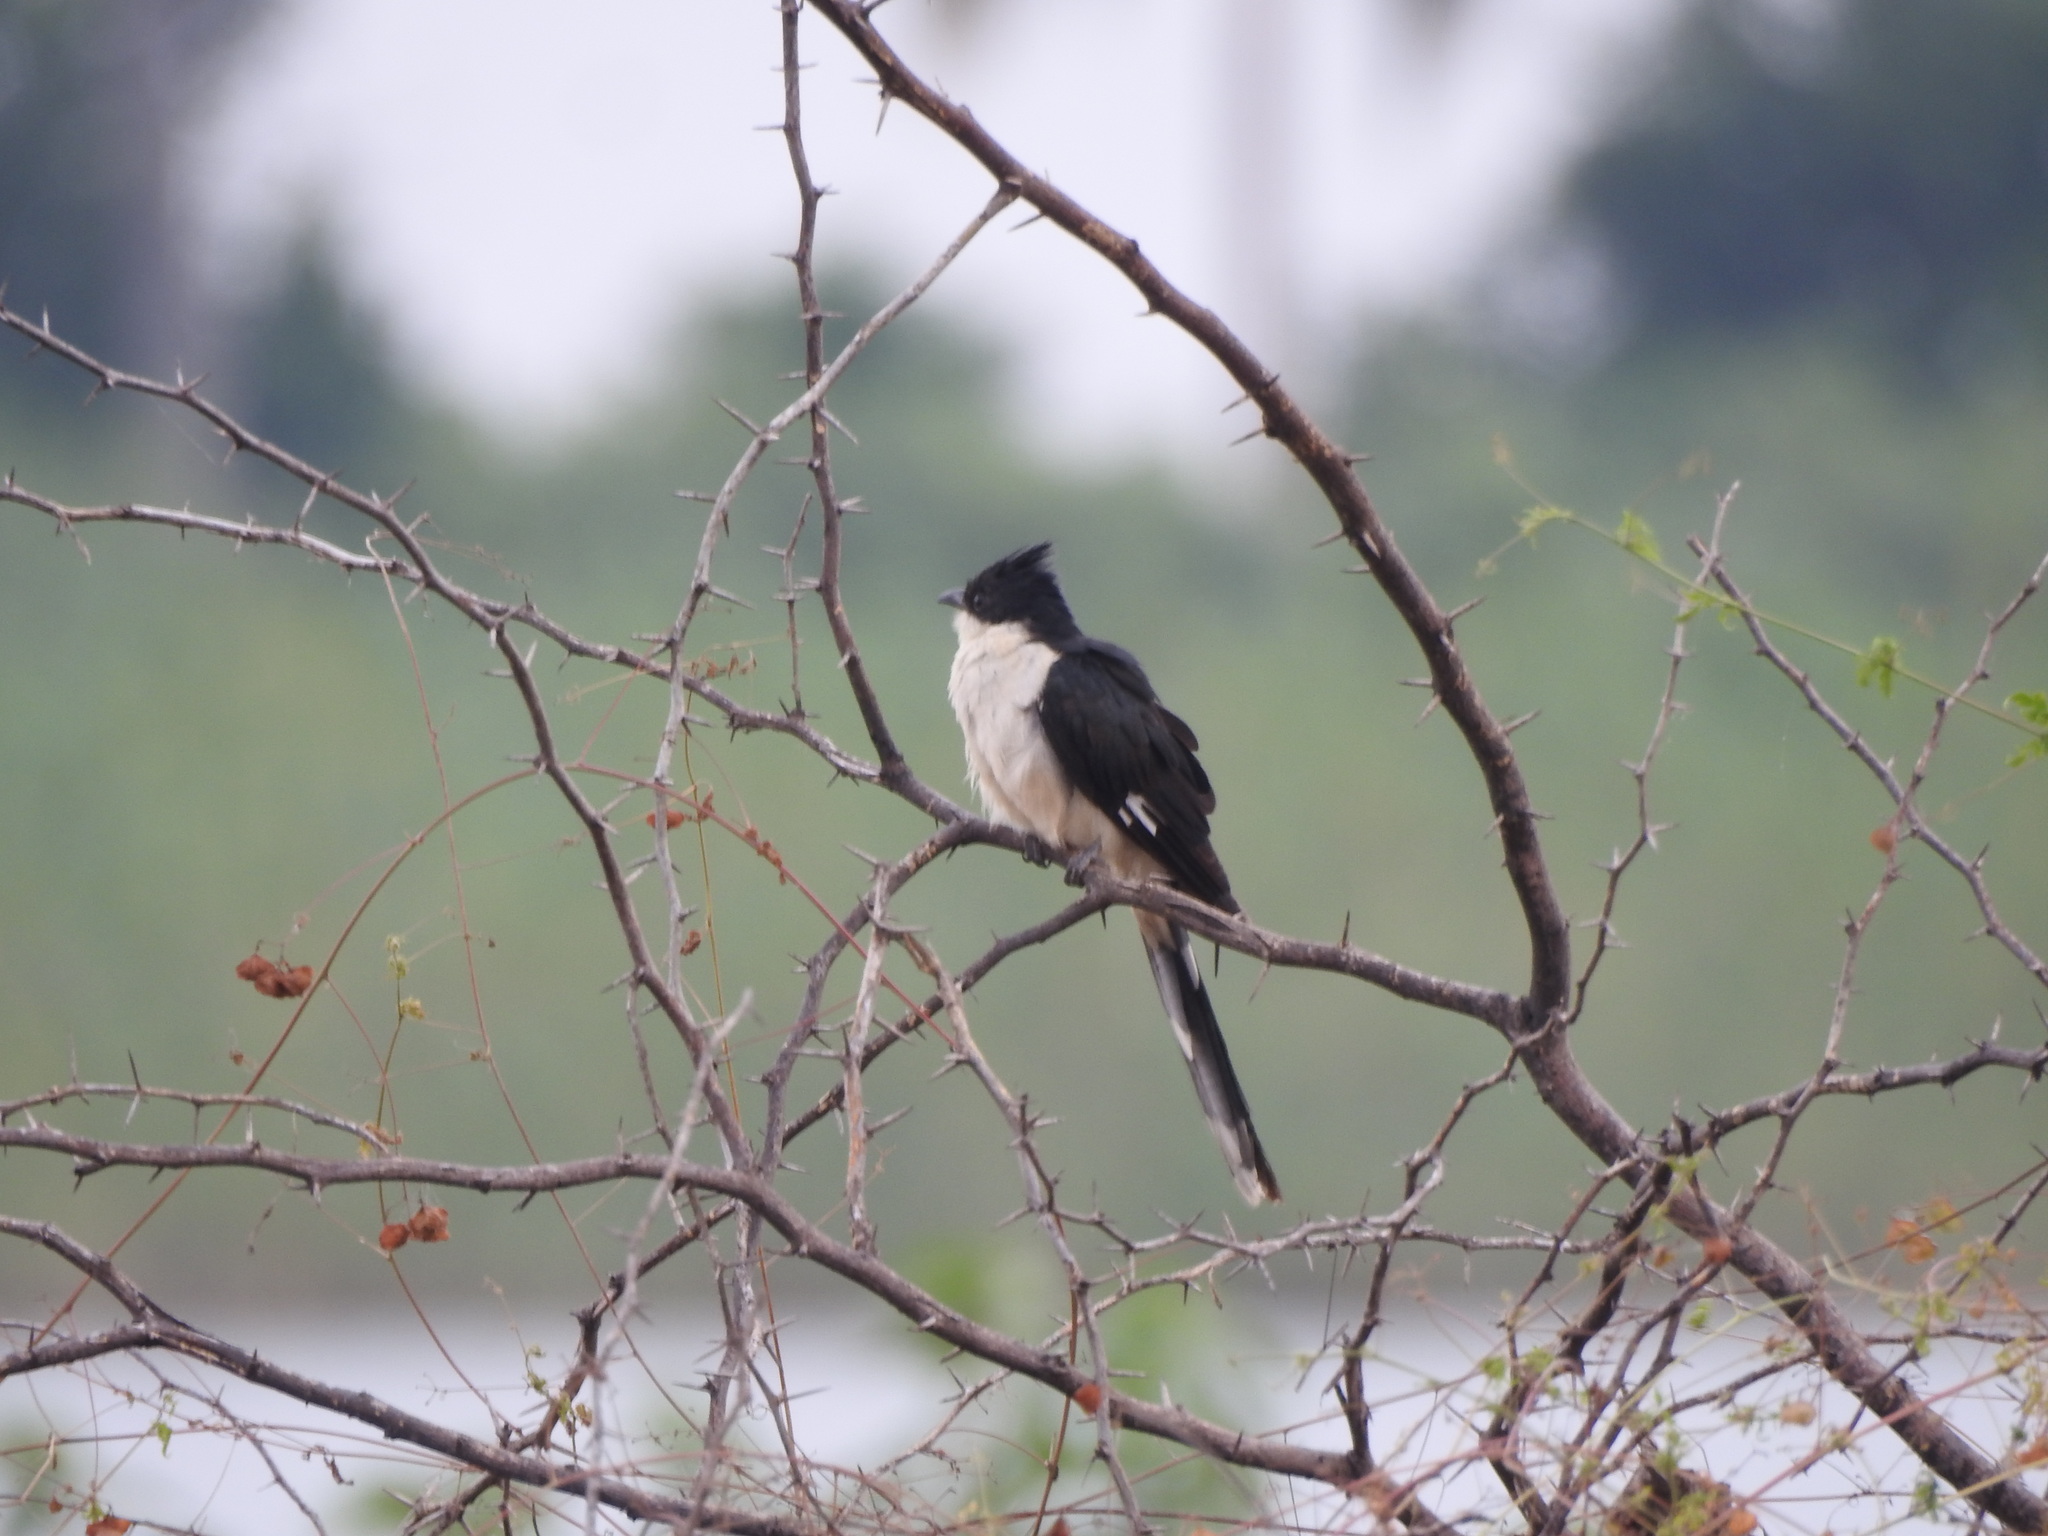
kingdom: Animalia
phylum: Chordata
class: Aves
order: Cuculiformes
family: Cuculidae
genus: Clamator
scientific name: Clamator jacobinus
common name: Jacobin cuckoo
